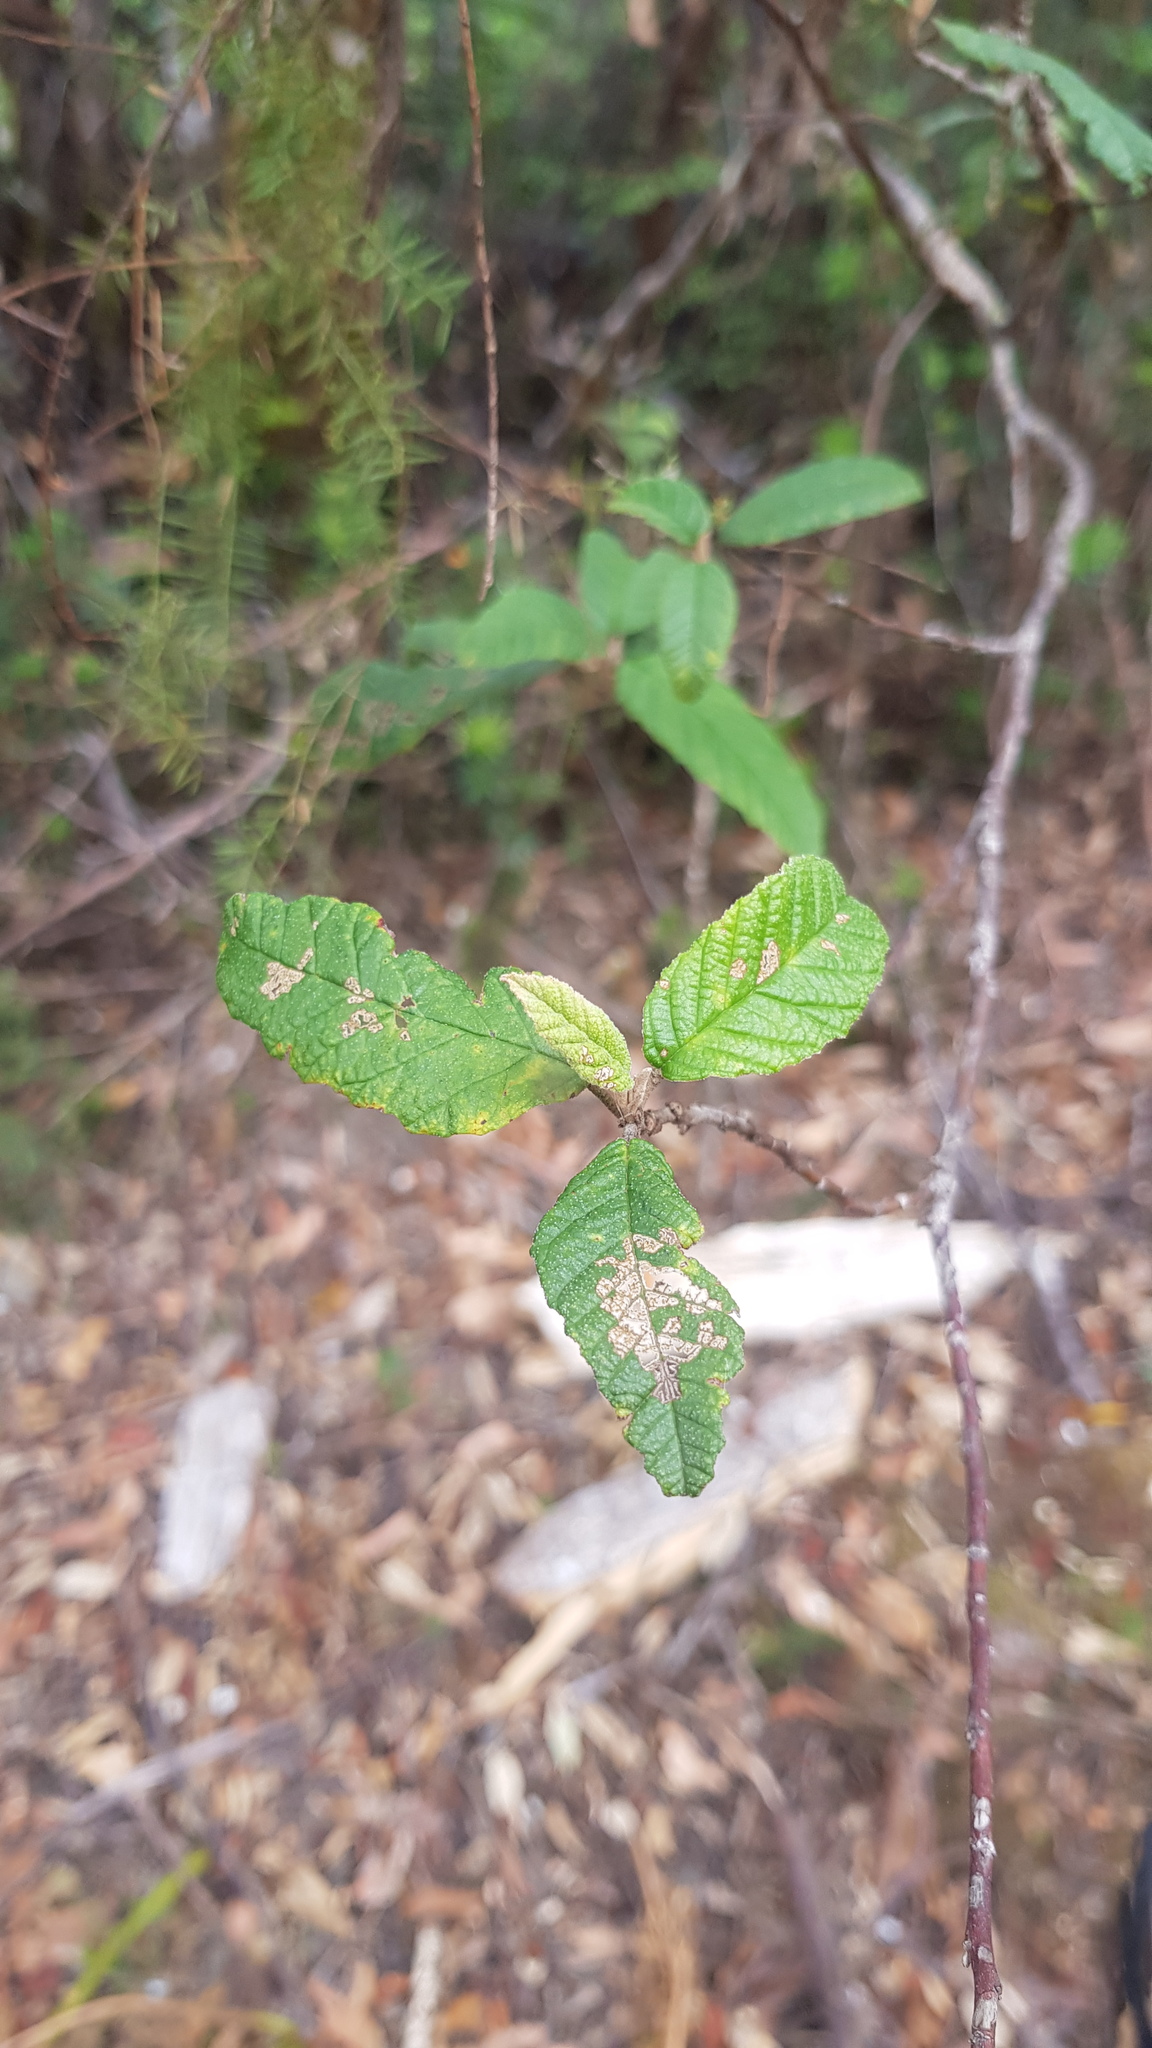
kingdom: Plantae
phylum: Tracheophyta
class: Magnoliopsida
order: Rosales
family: Rhamnaceae
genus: Pomaderris
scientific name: Pomaderris apetala
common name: Hazel pomaderris
